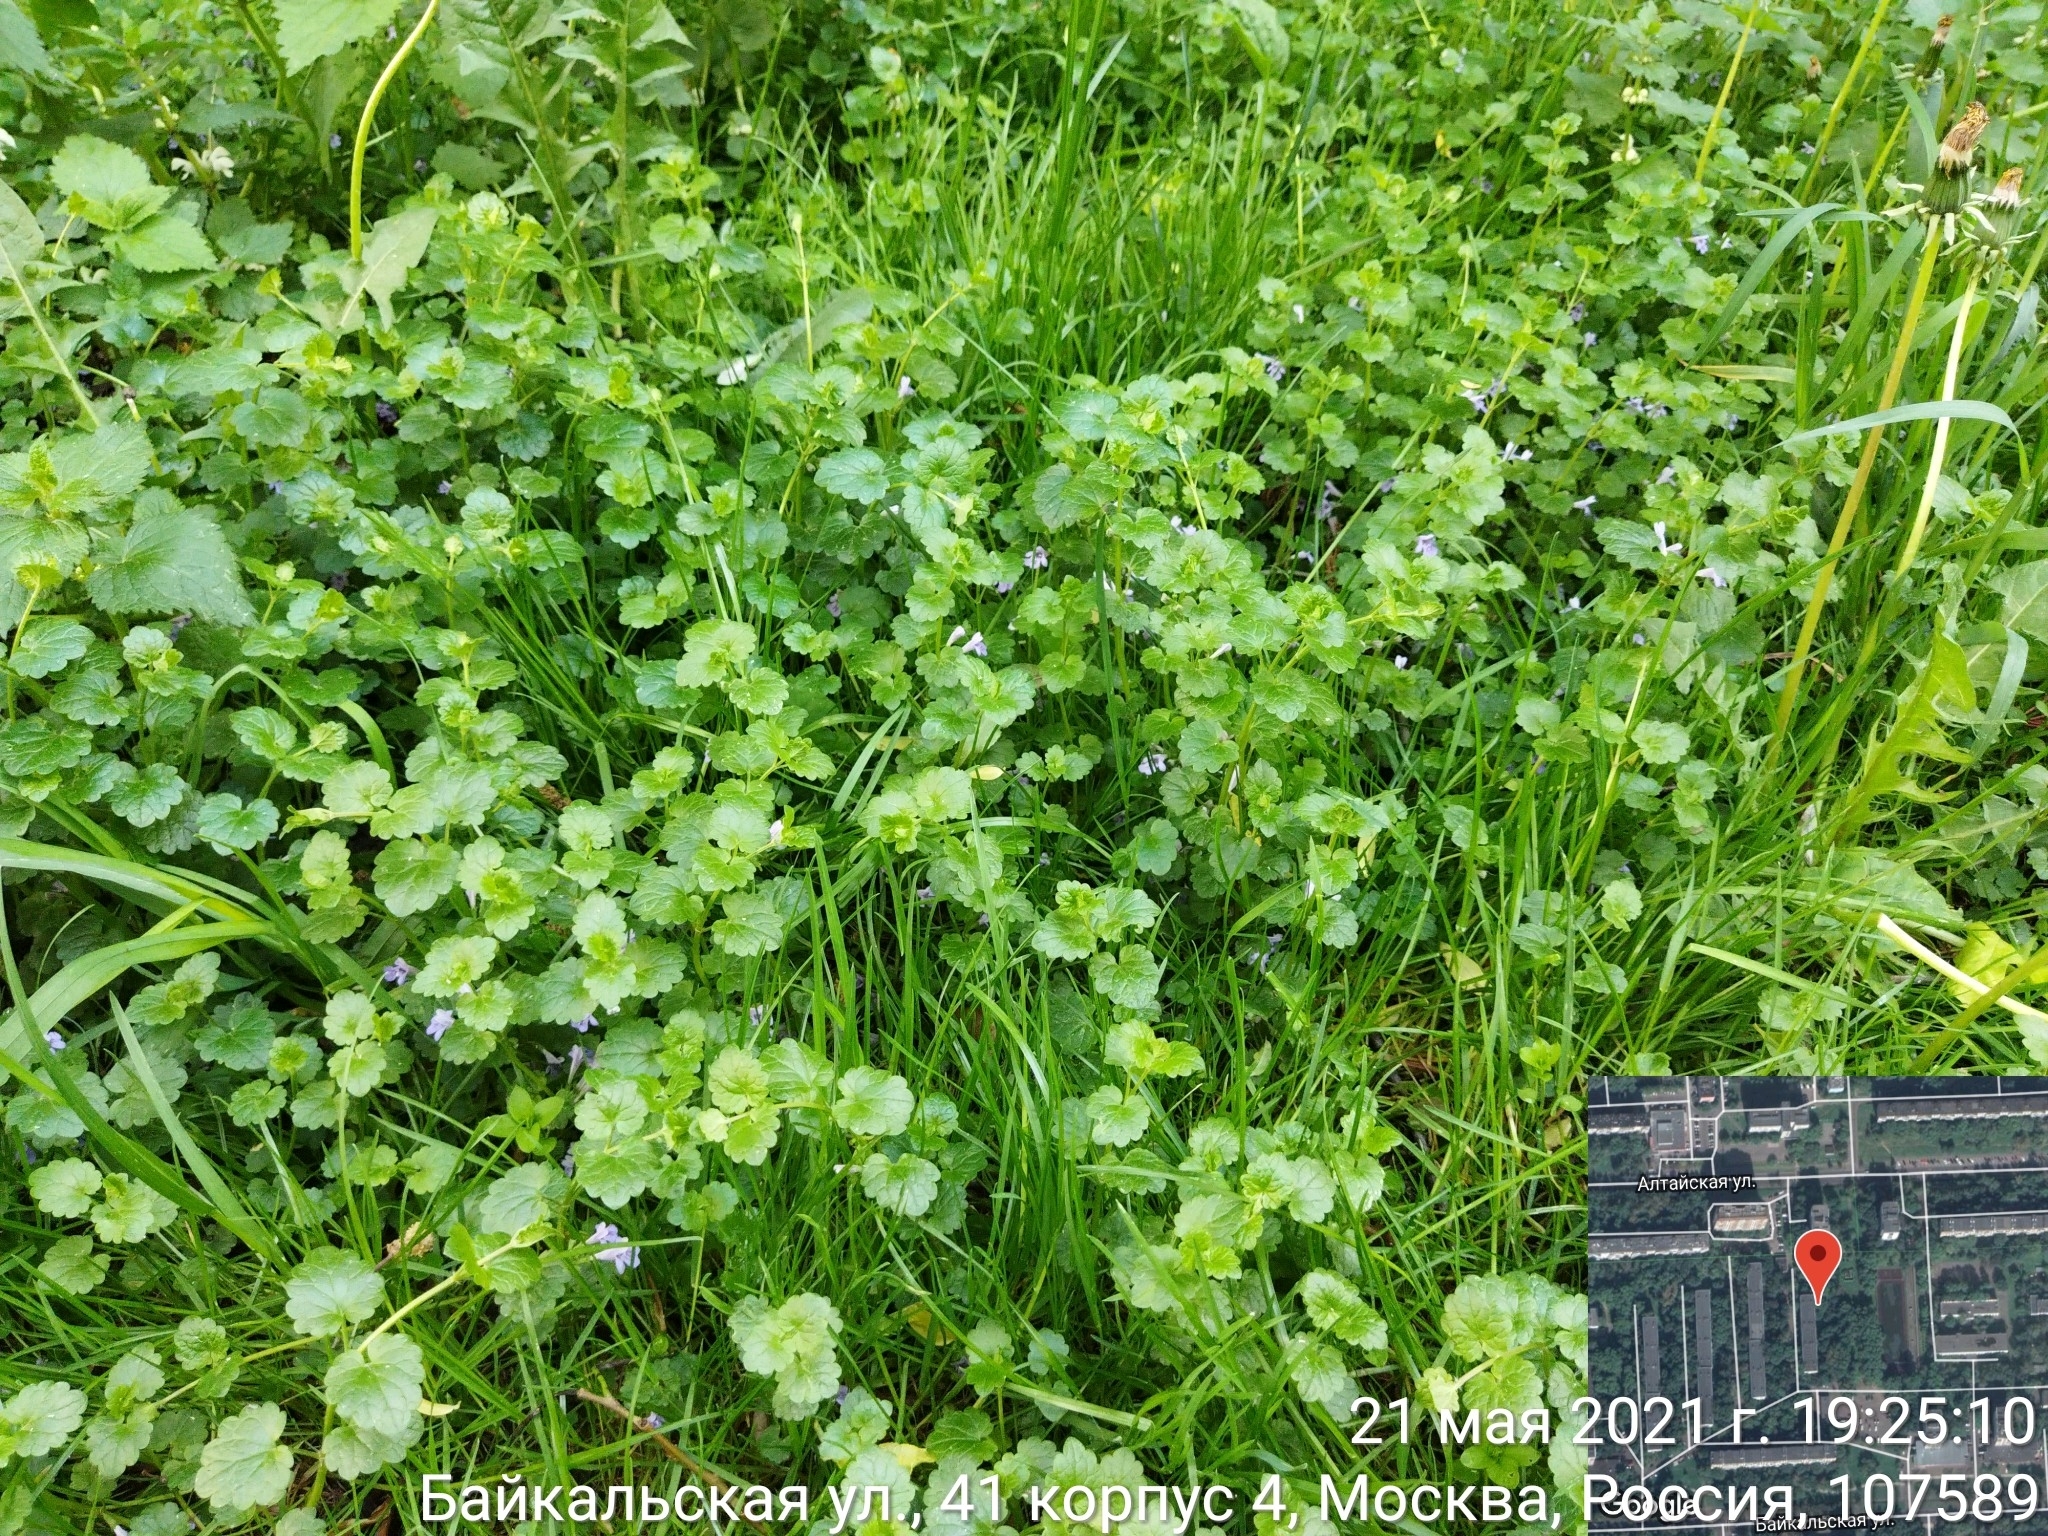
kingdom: Plantae
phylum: Tracheophyta
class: Magnoliopsida
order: Lamiales
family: Lamiaceae
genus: Glechoma
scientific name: Glechoma hederacea
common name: Ground ivy
